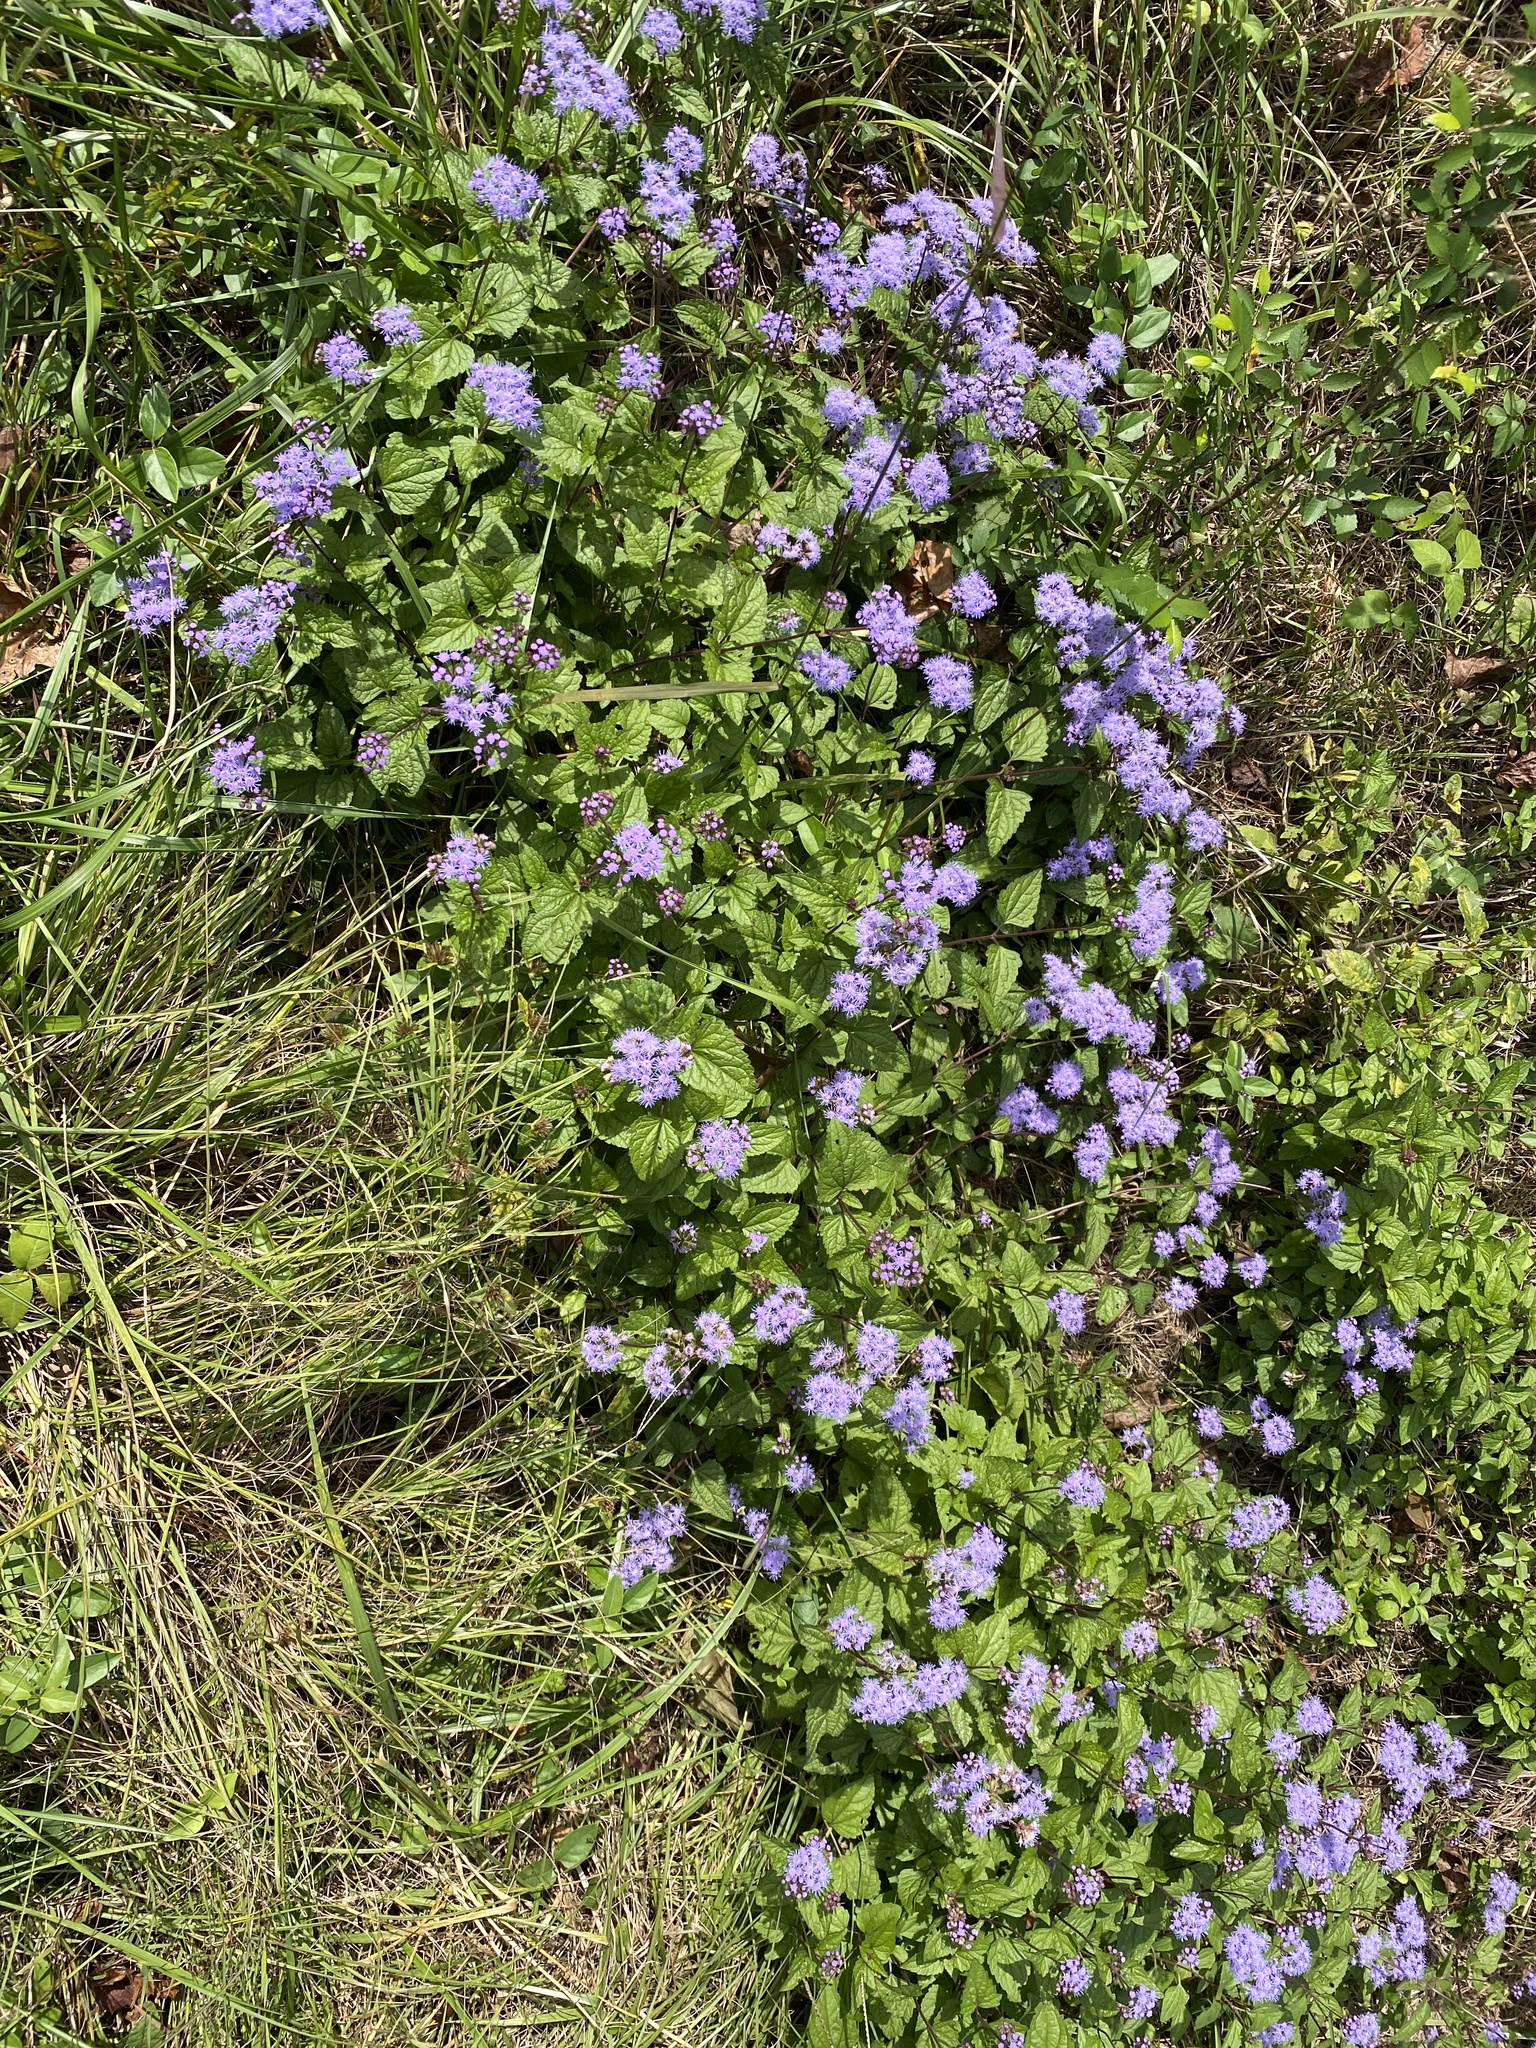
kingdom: Plantae
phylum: Tracheophyta
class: Magnoliopsida
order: Asterales
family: Asteraceae
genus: Conoclinium
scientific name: Conoclinium coelestinum
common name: Blue mistflower
